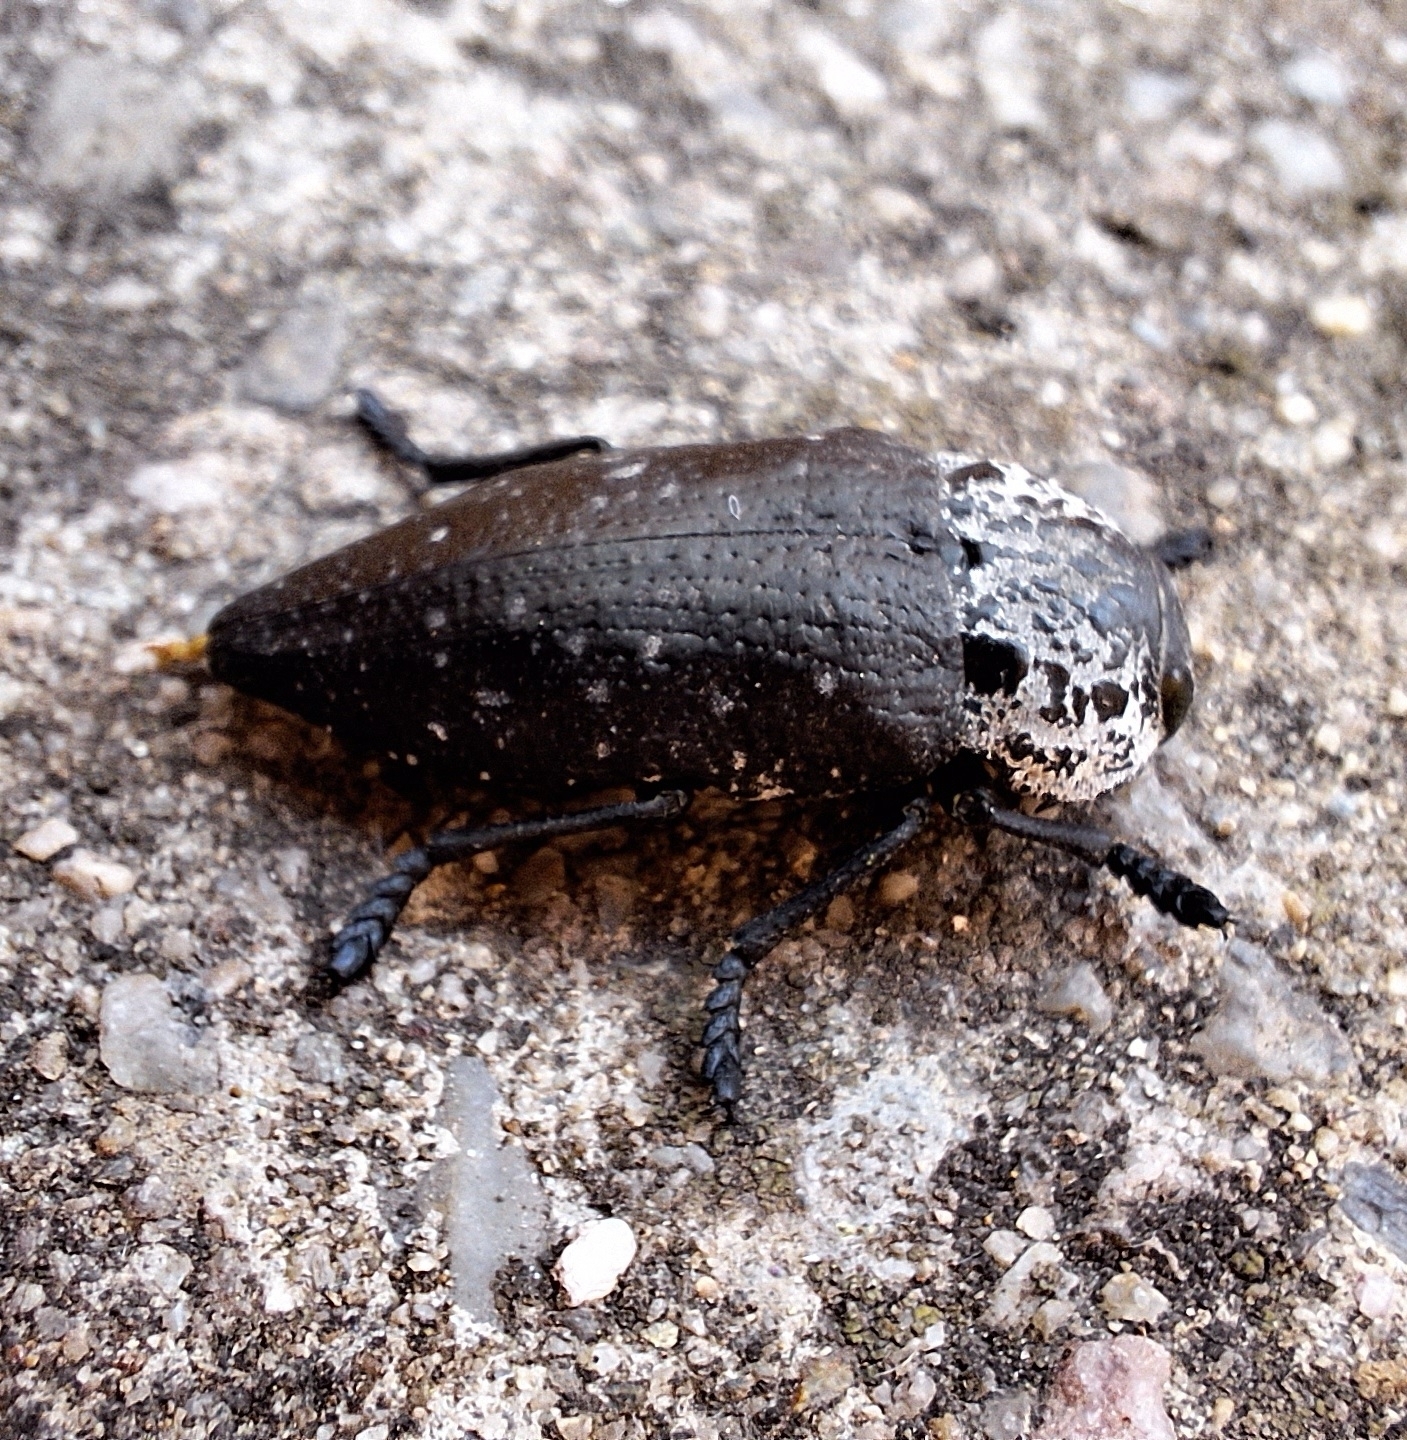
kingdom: Animalia
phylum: Arthropoda
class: Insecta
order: Coleoptera
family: Buprestidae
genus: Capnodis
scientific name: Capnodis tenebrionis
